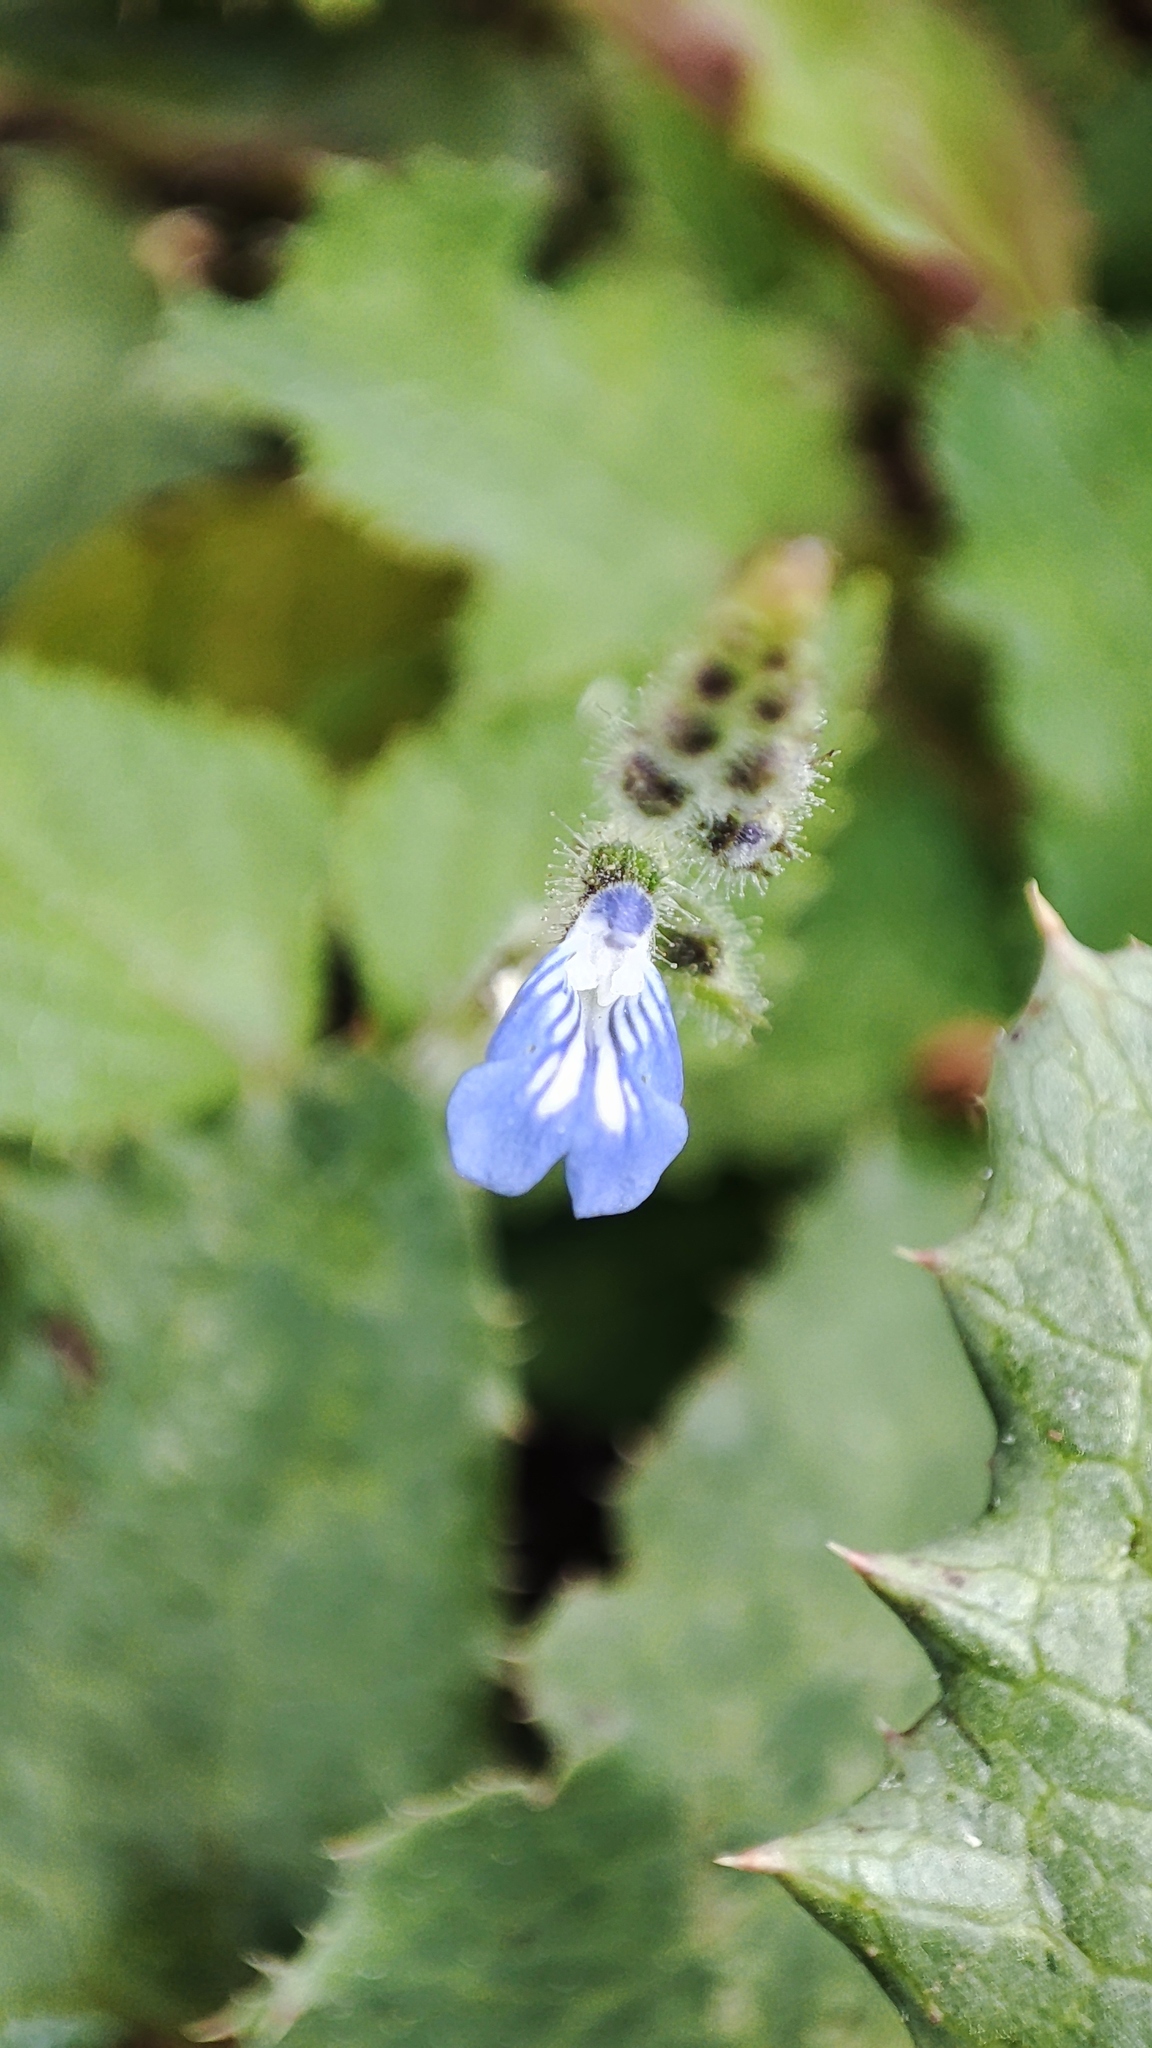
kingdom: Plantae
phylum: Tracheophyta
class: Magnoliopsida
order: Lamiales
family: Lamiaceae
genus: Salvia
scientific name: Salvia misella
